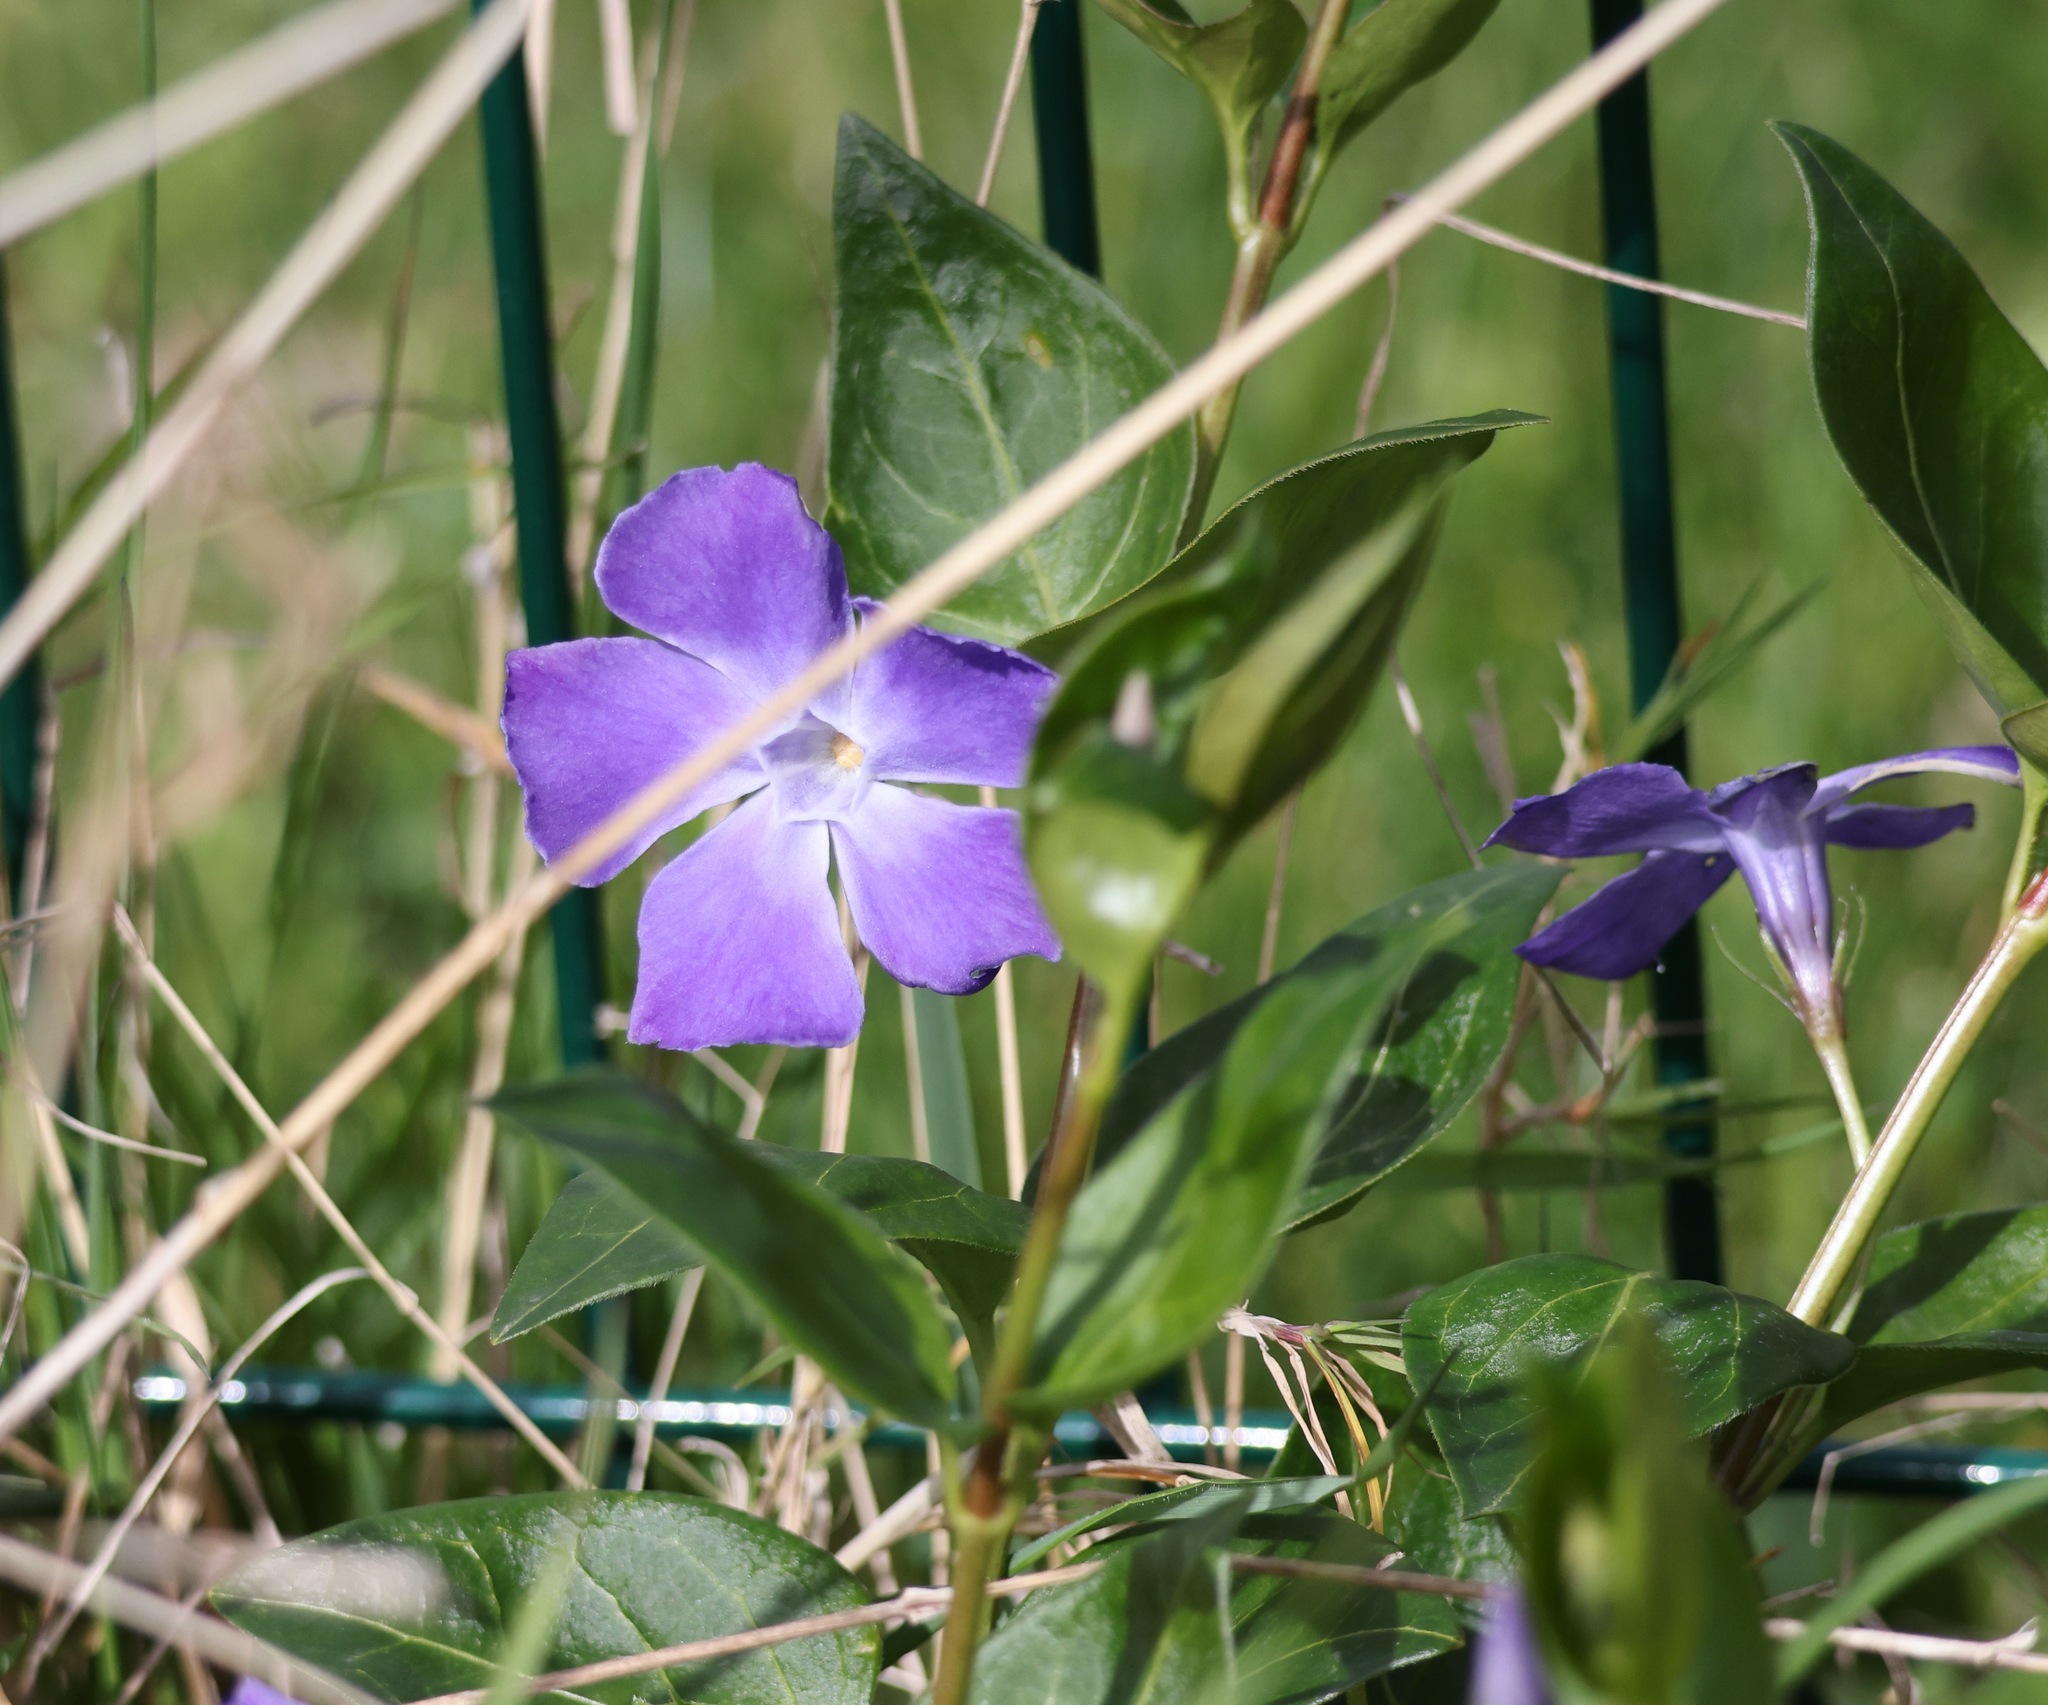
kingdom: Plantae
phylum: Tracheophyta
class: Magnoliopsida
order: Gentianales
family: Apocynaceae
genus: Vinca
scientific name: Vinca major
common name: Greater periwinkle
